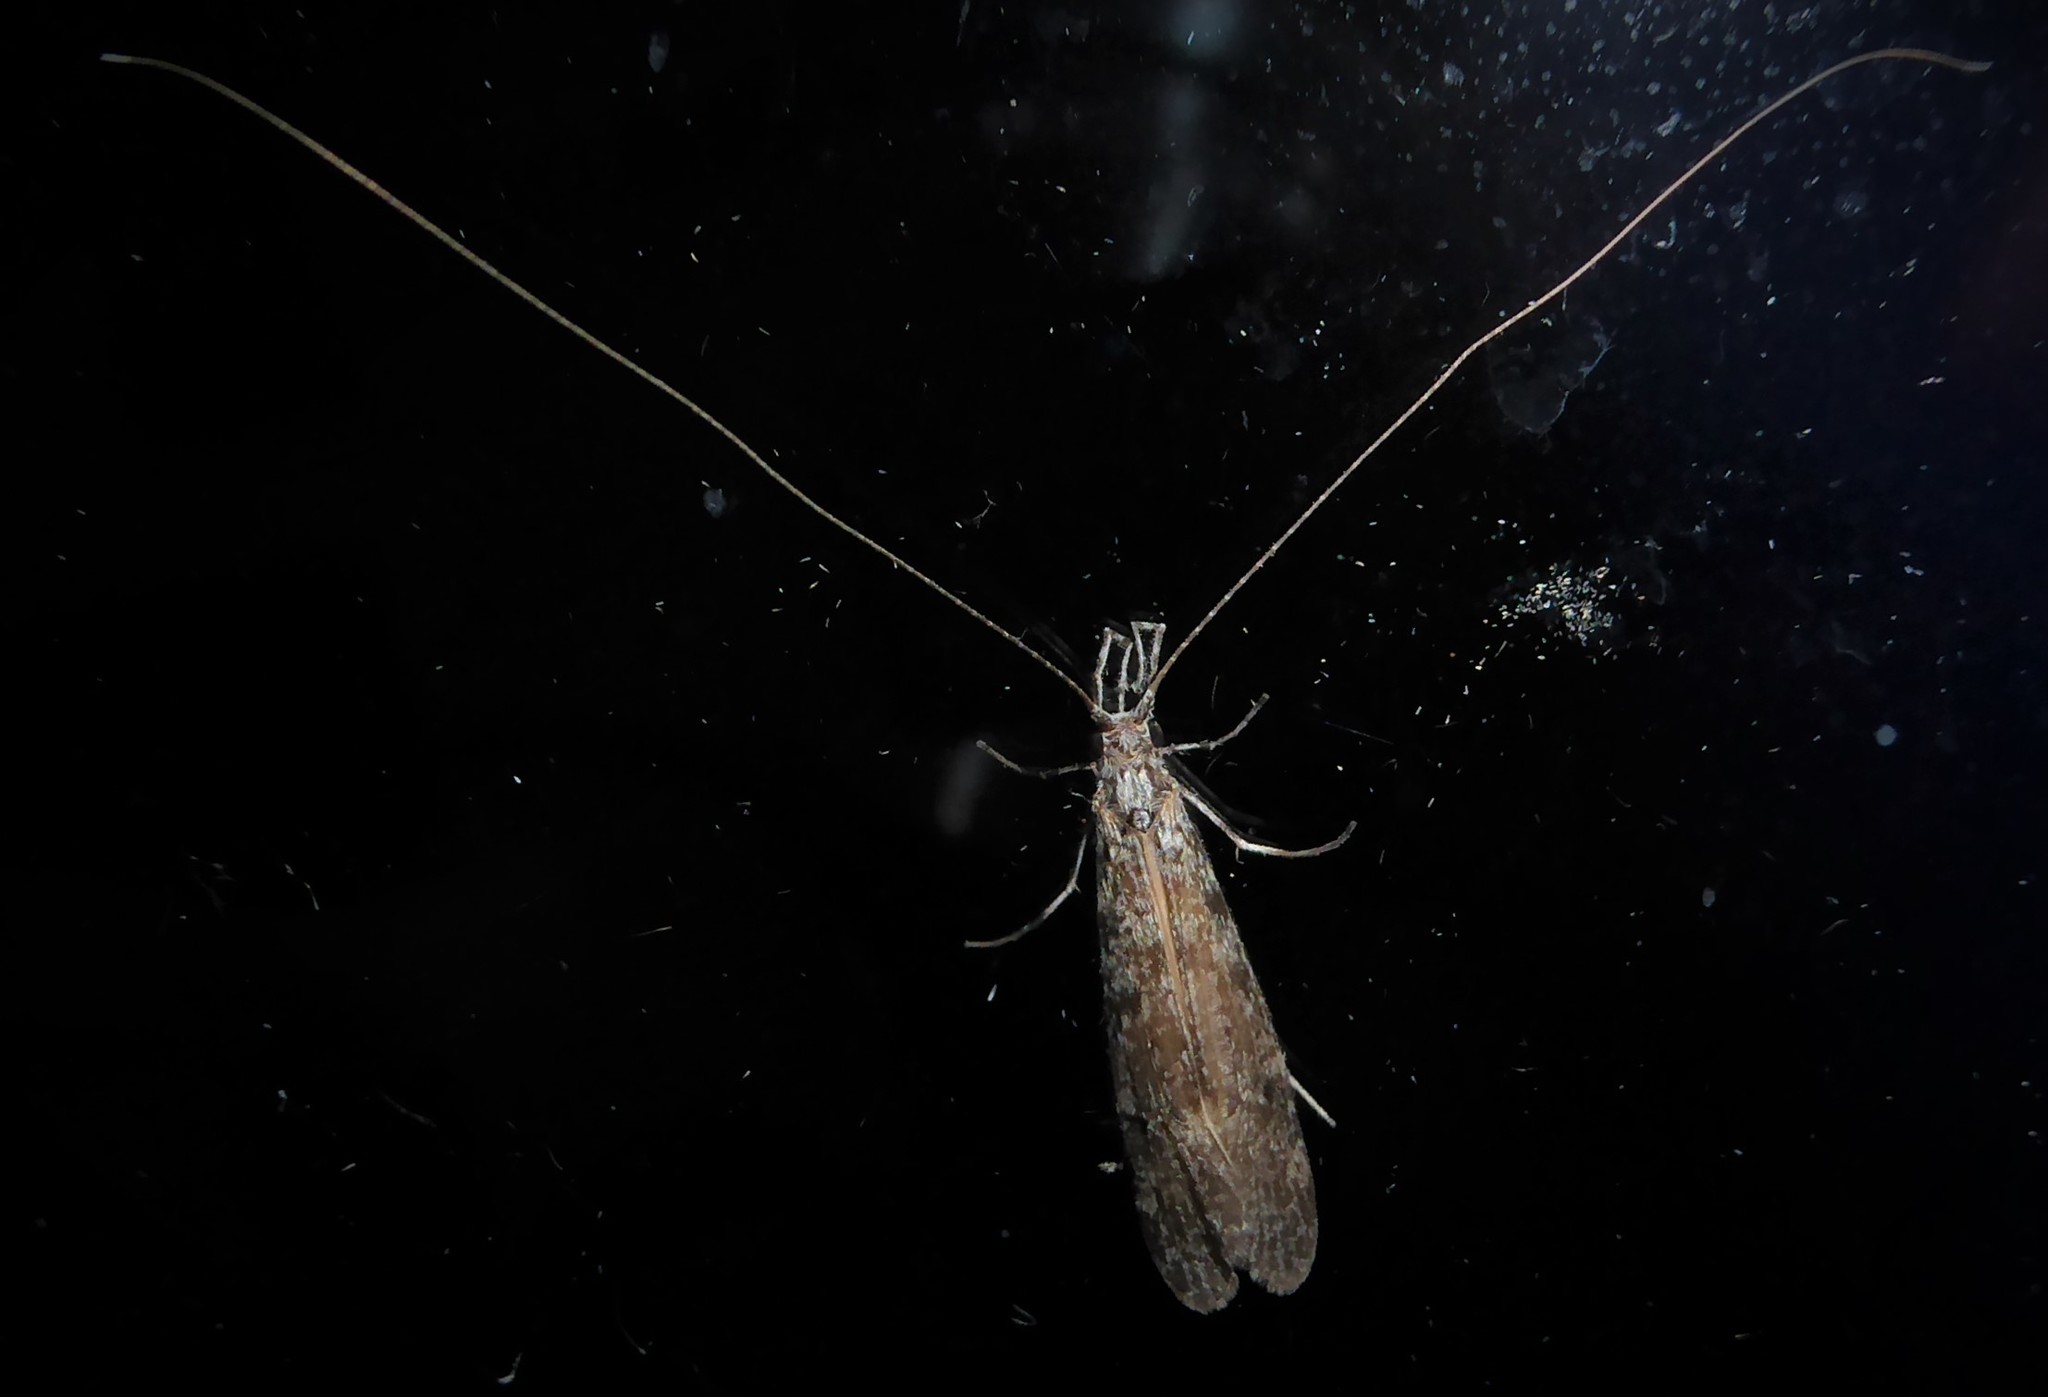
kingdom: Animalia
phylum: Arthropoda
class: Insecta
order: Trichoptera
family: Leptoceridae
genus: Triplectides
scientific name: Triplectides obsoletus
